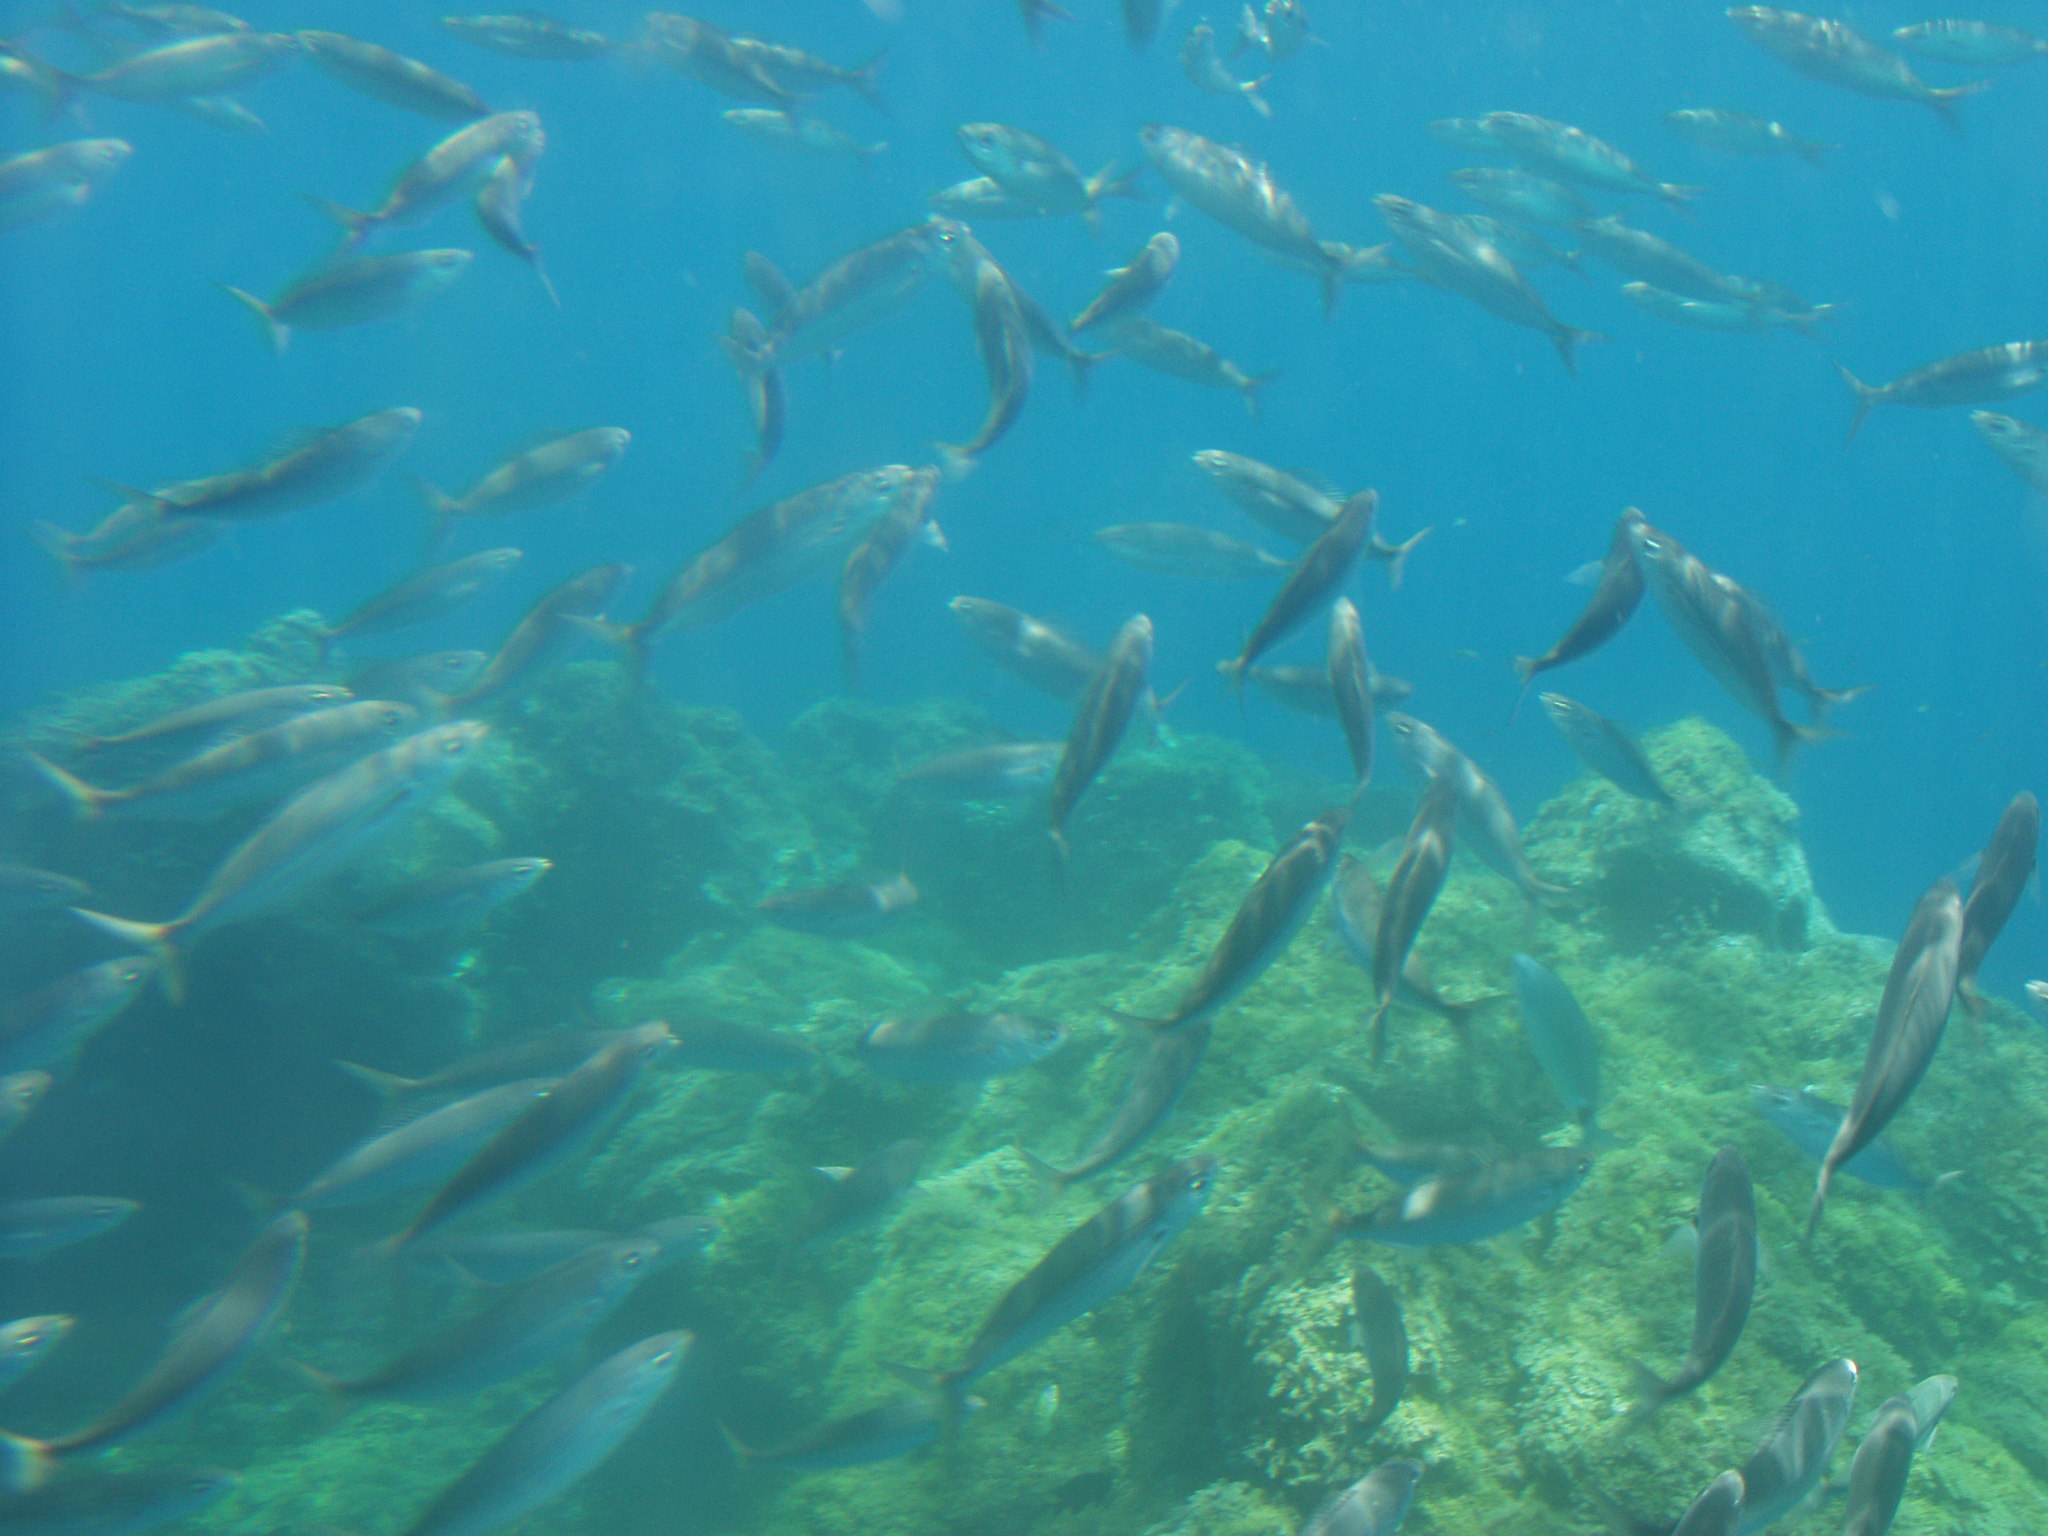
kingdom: Animalia
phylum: Chordata
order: Perciformes
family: Sparidae
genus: Boops
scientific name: Boops boops
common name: Bogue
